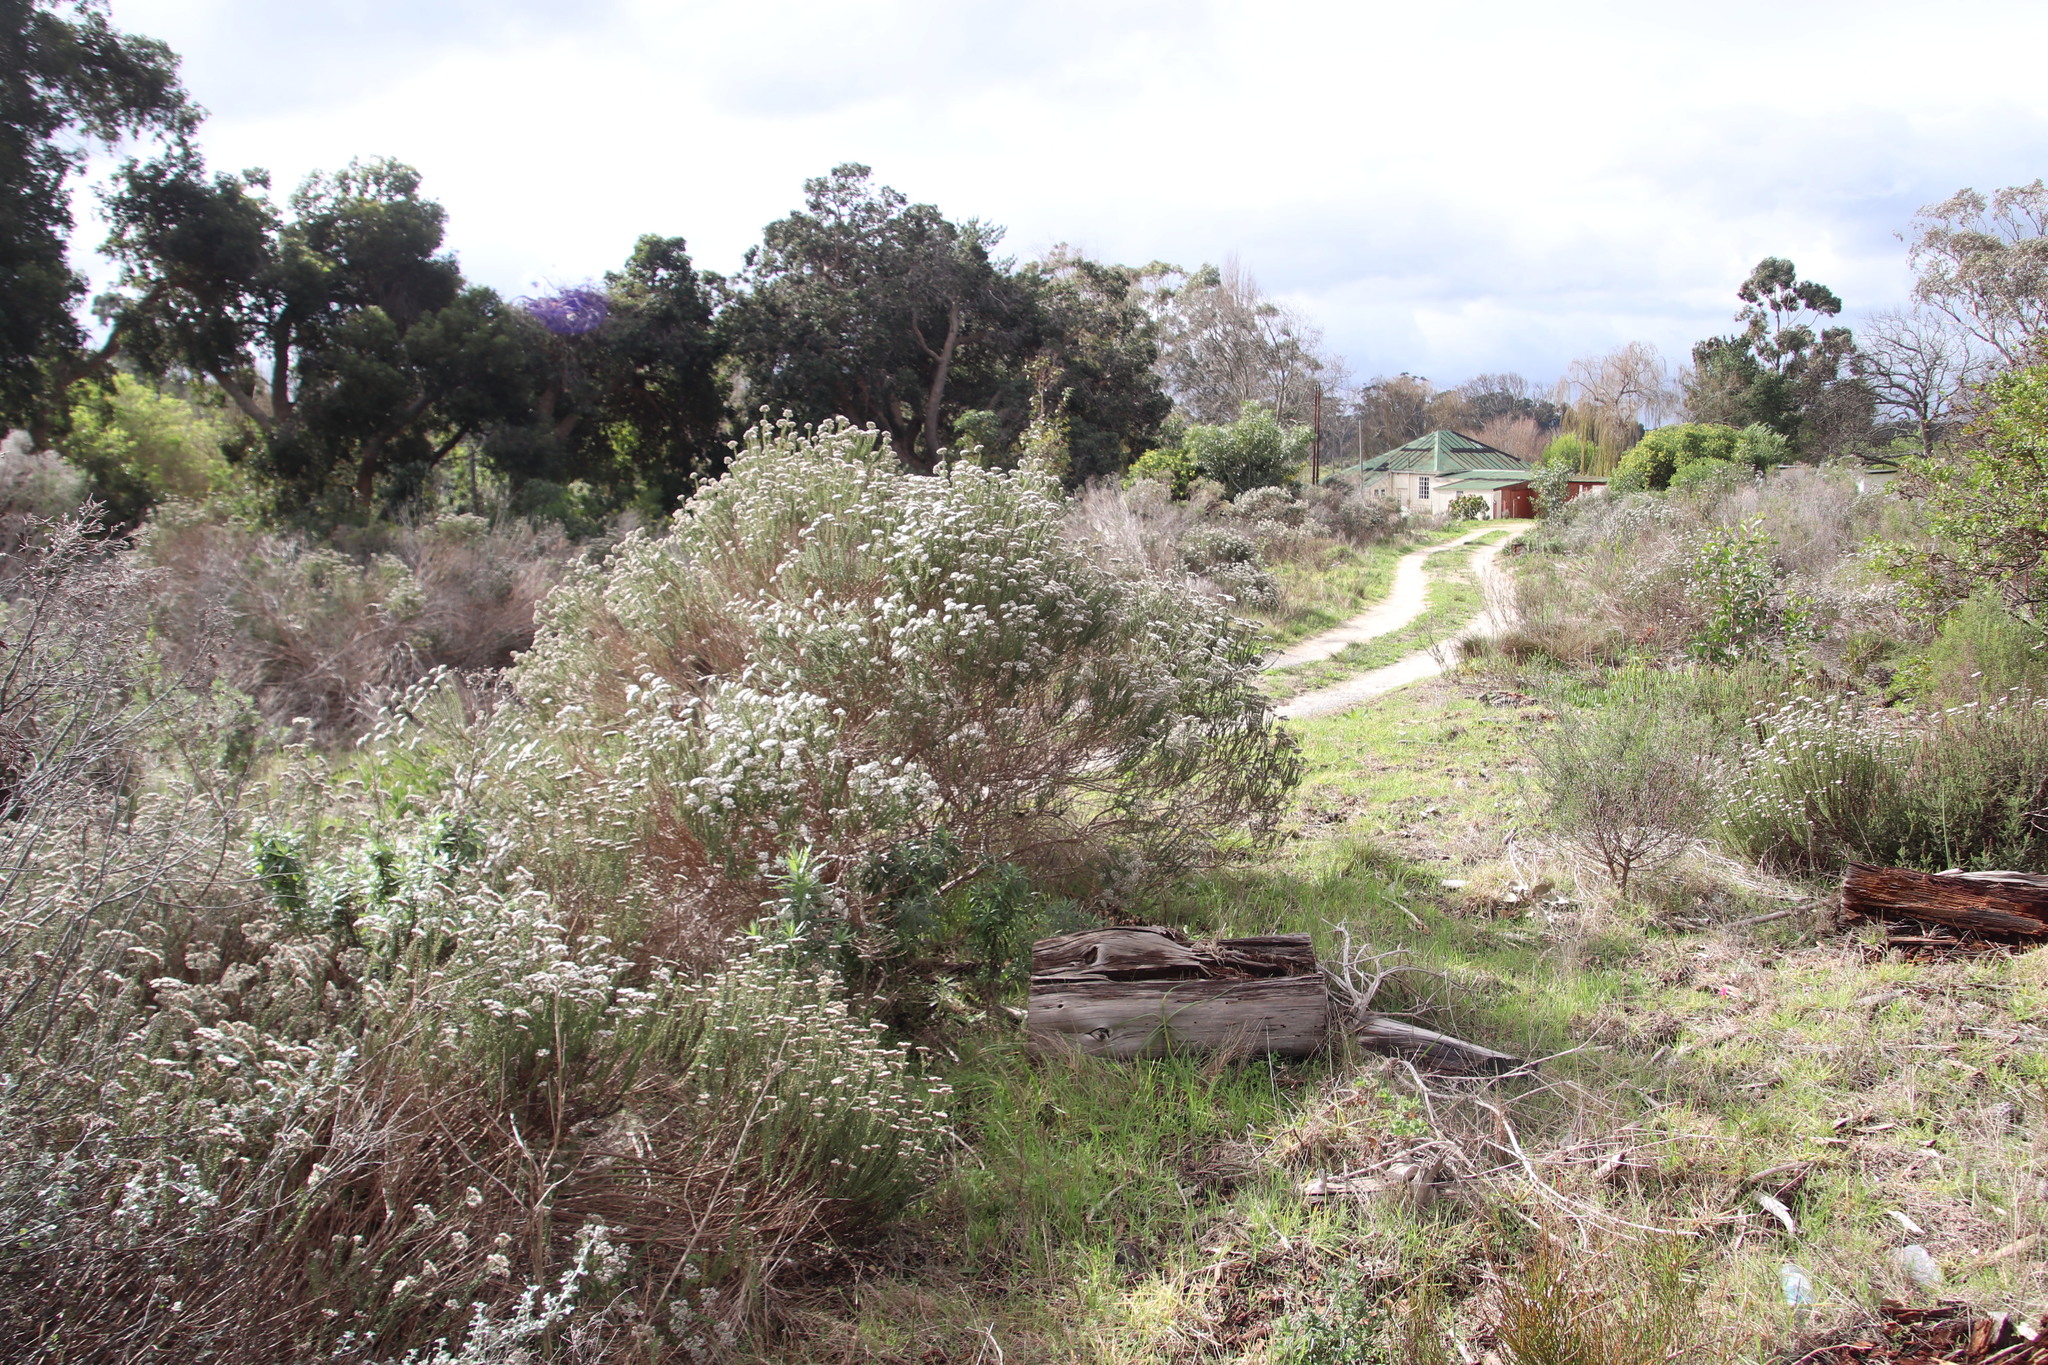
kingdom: Plantae
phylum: Tracheophyta
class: Magnoliopsida
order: Asterales
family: Asteraceae
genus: Metalasia
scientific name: Metalasia densa
